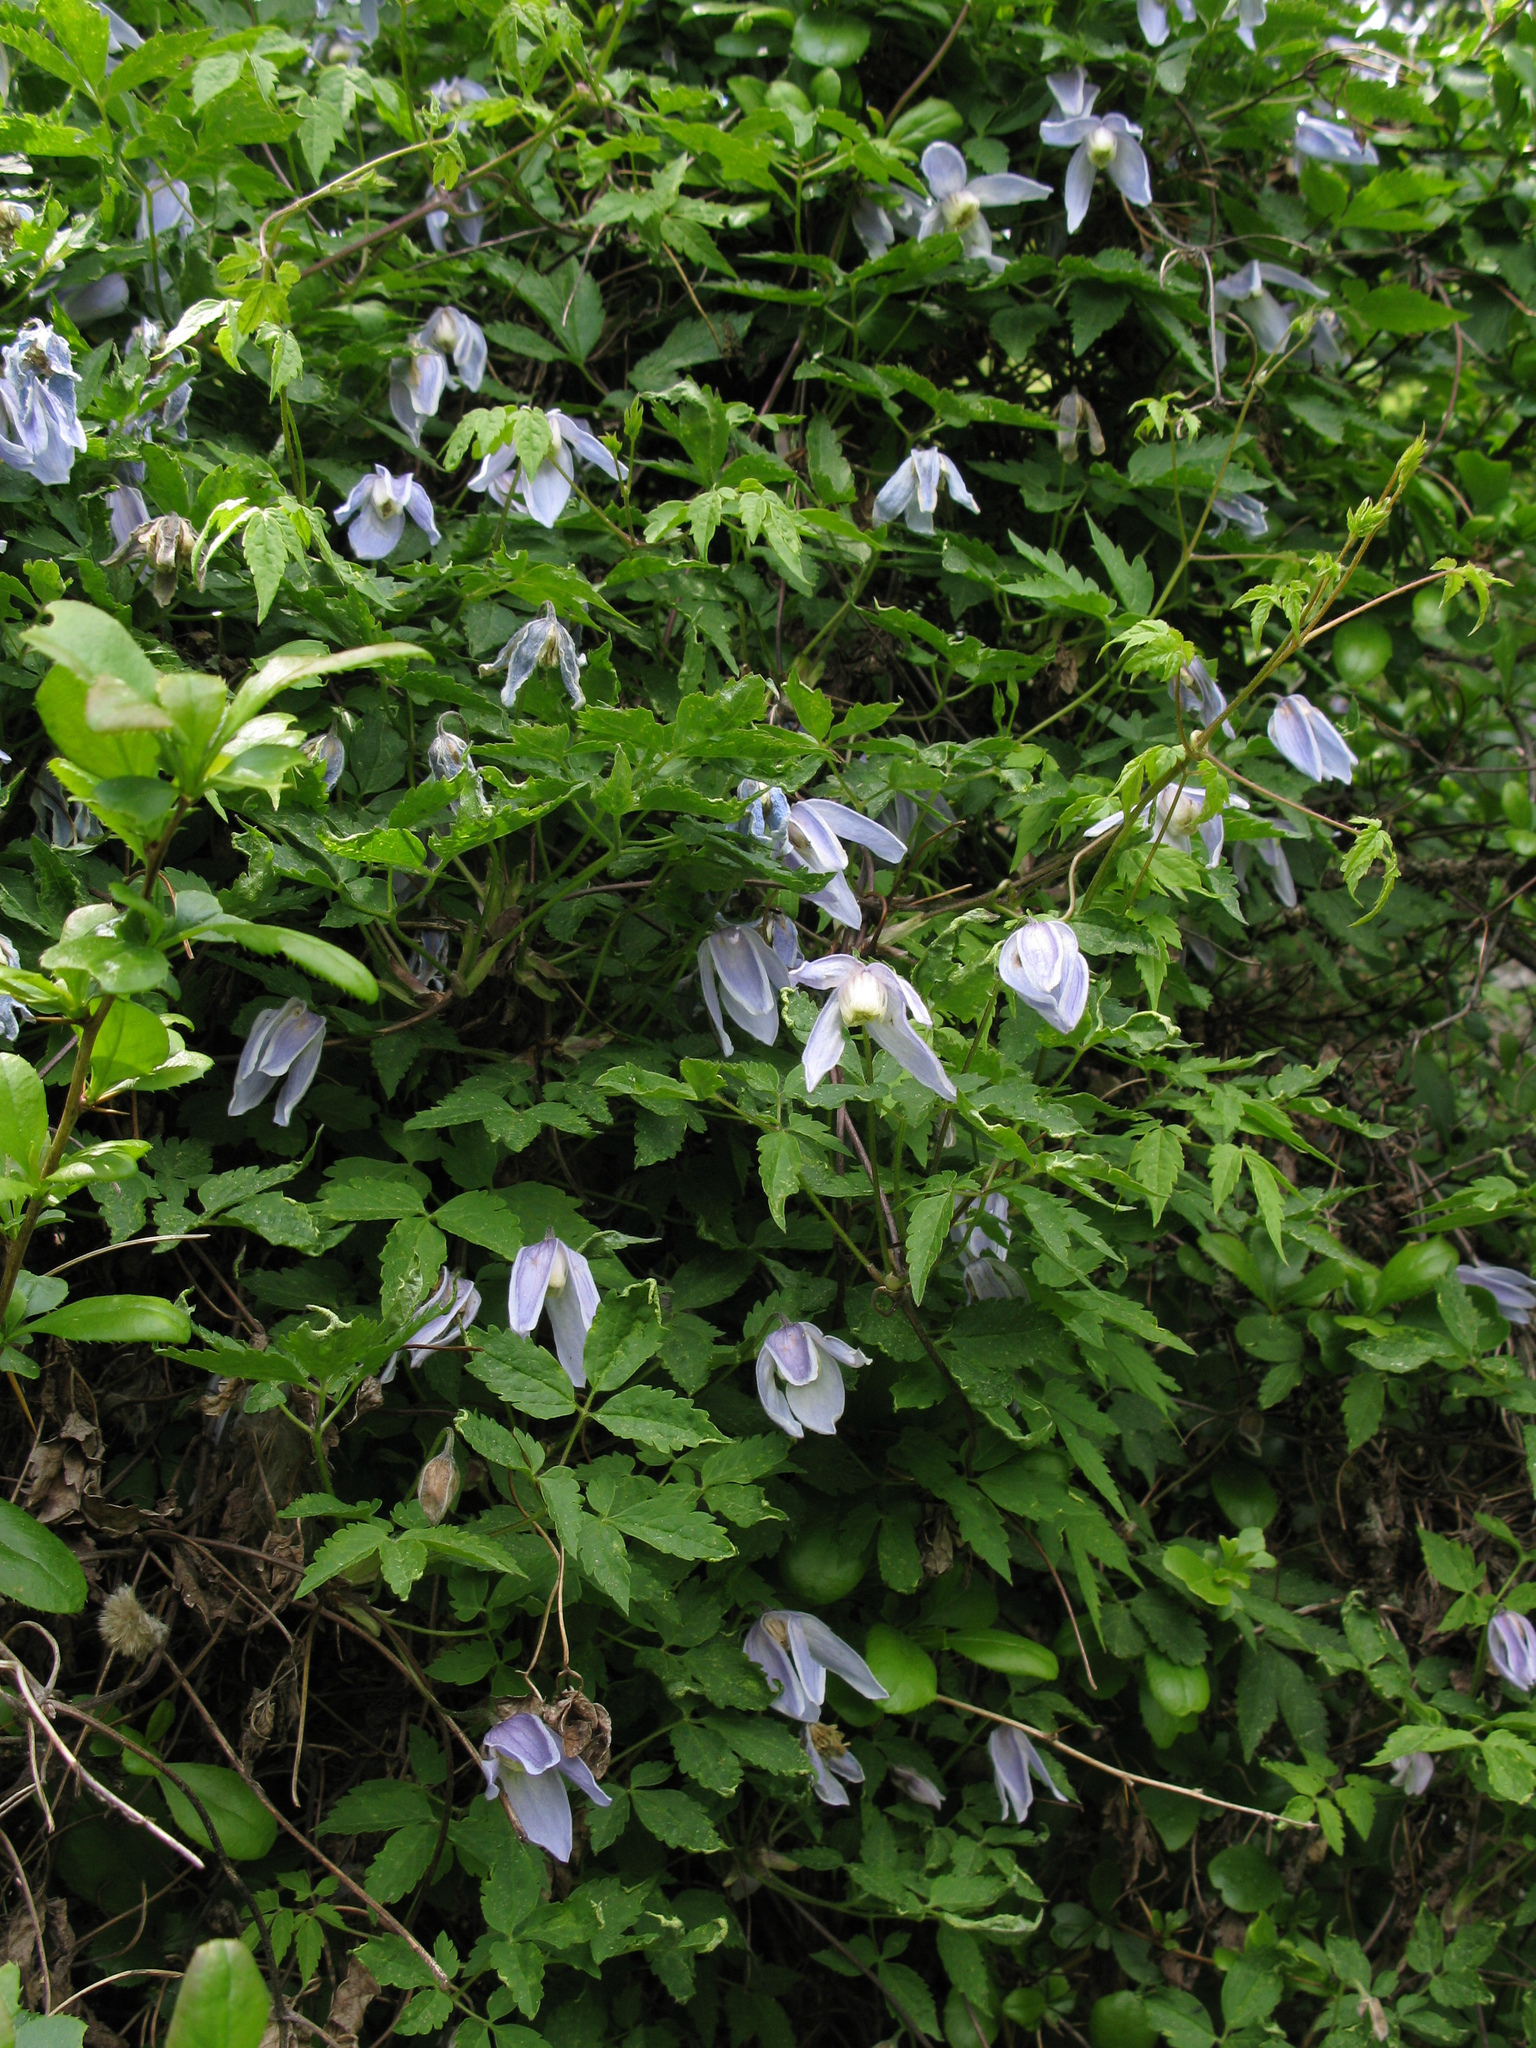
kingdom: Plantae
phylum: Tracheophyta
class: Magnoliopsida
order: Ranunculales
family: Ranunculaceae
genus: Clematis
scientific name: Clematis alpina
